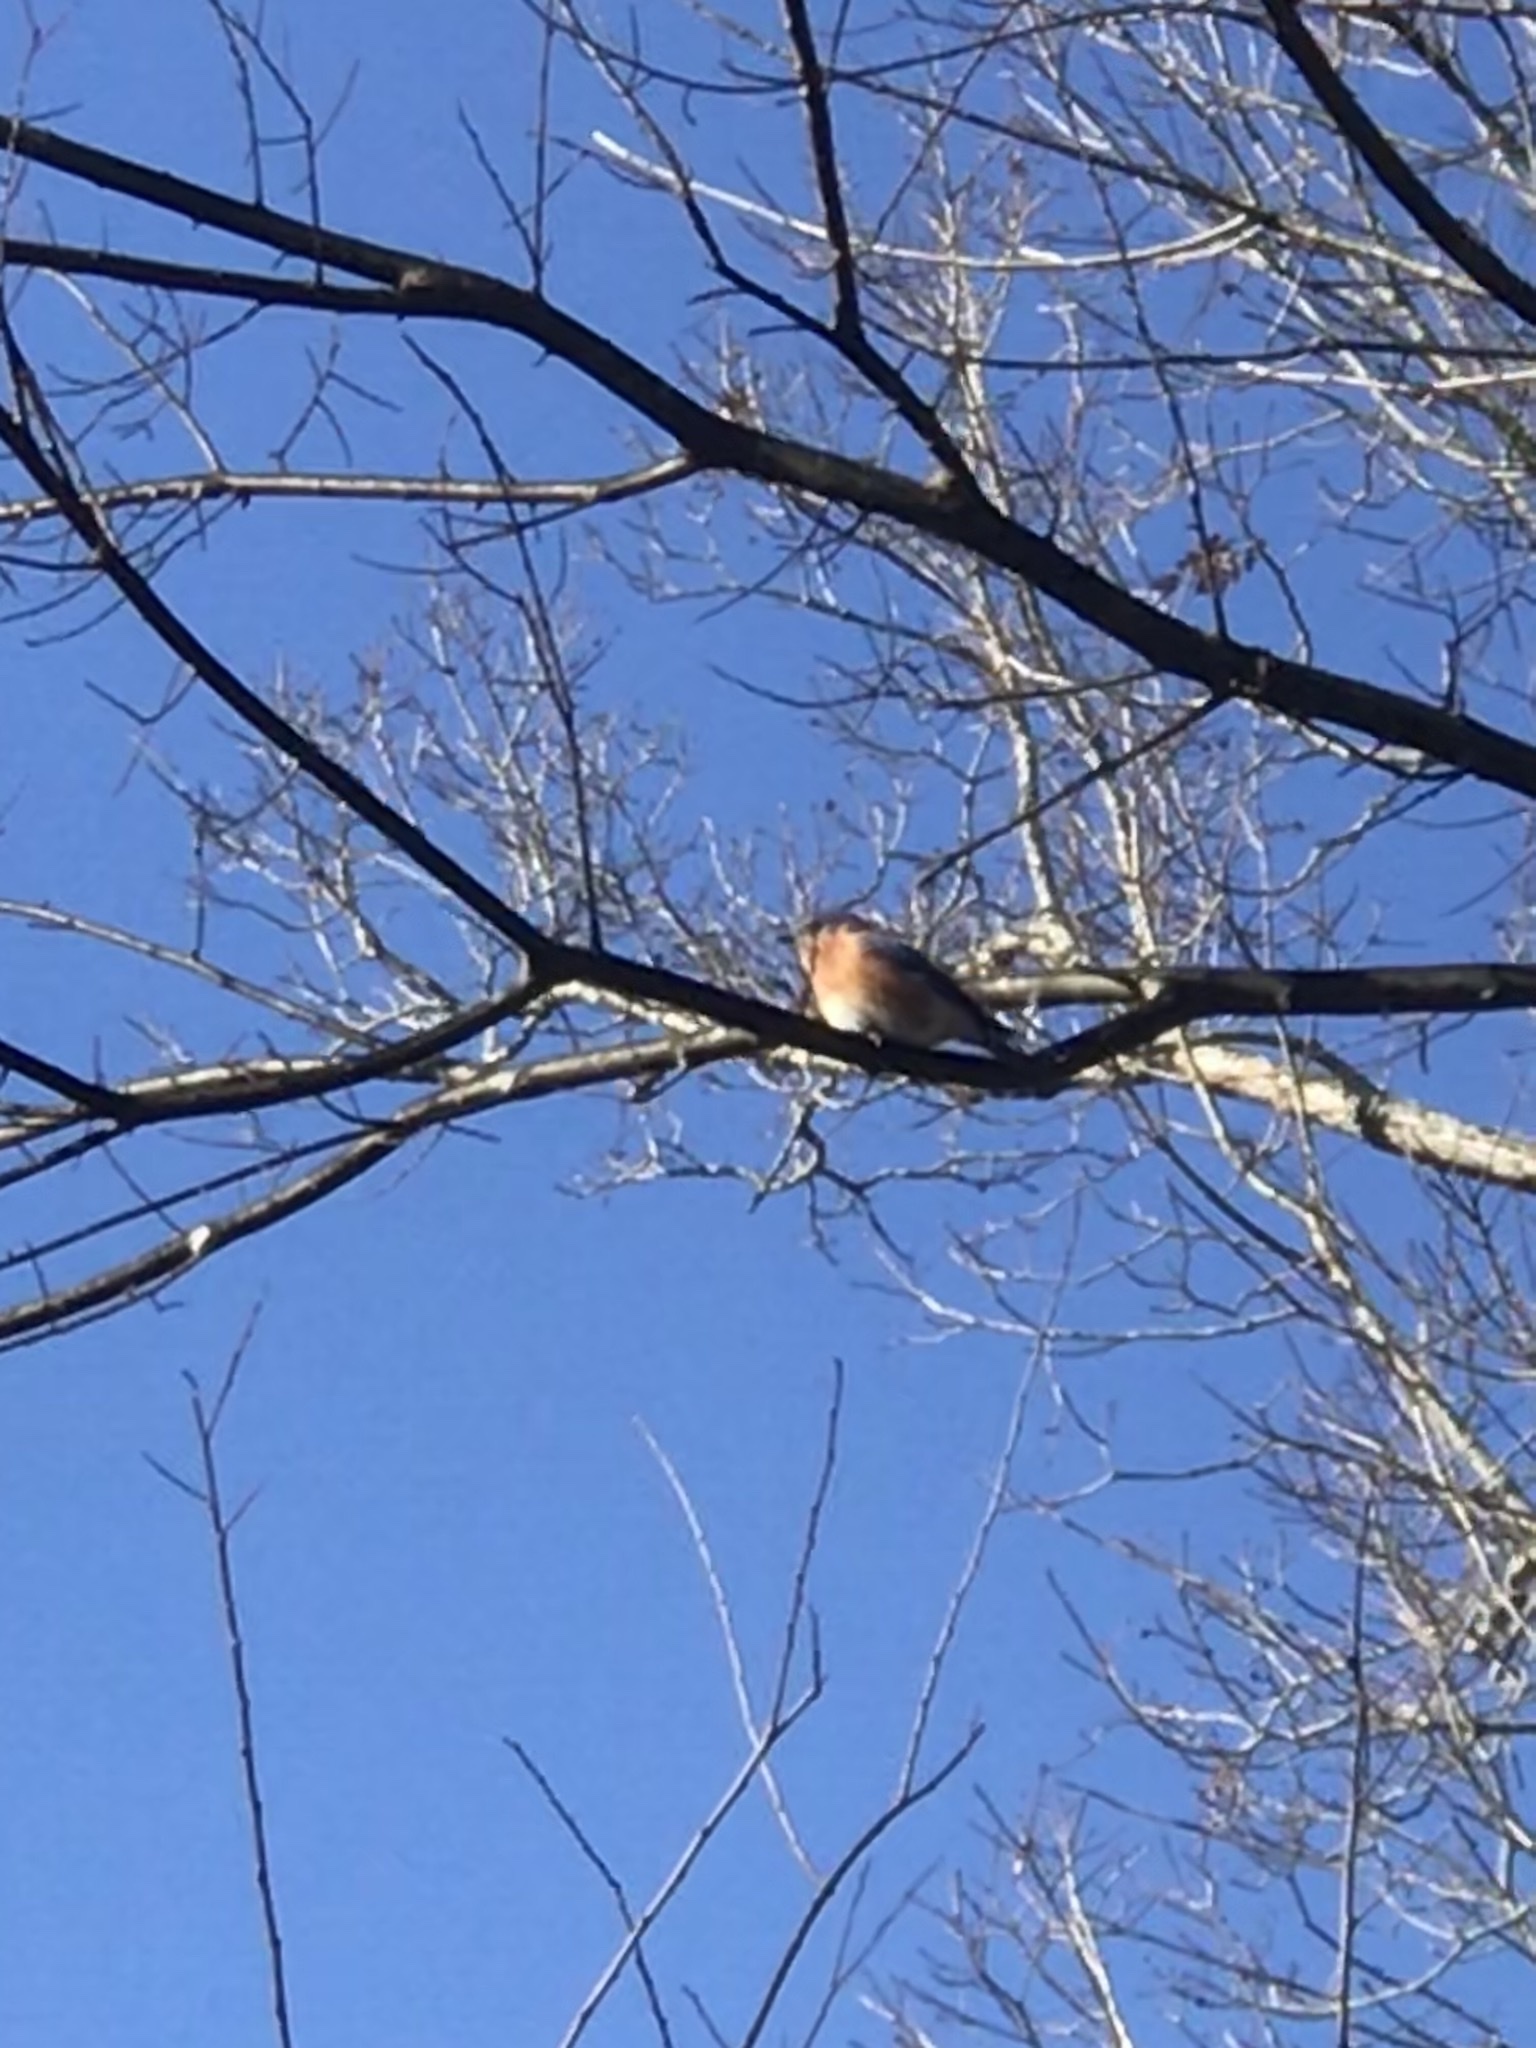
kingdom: Animalia
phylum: Chordata
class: Aves
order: Passeriformes
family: Turdidae
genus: Sialia
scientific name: Sialia sialis
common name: Eastern bluebird
